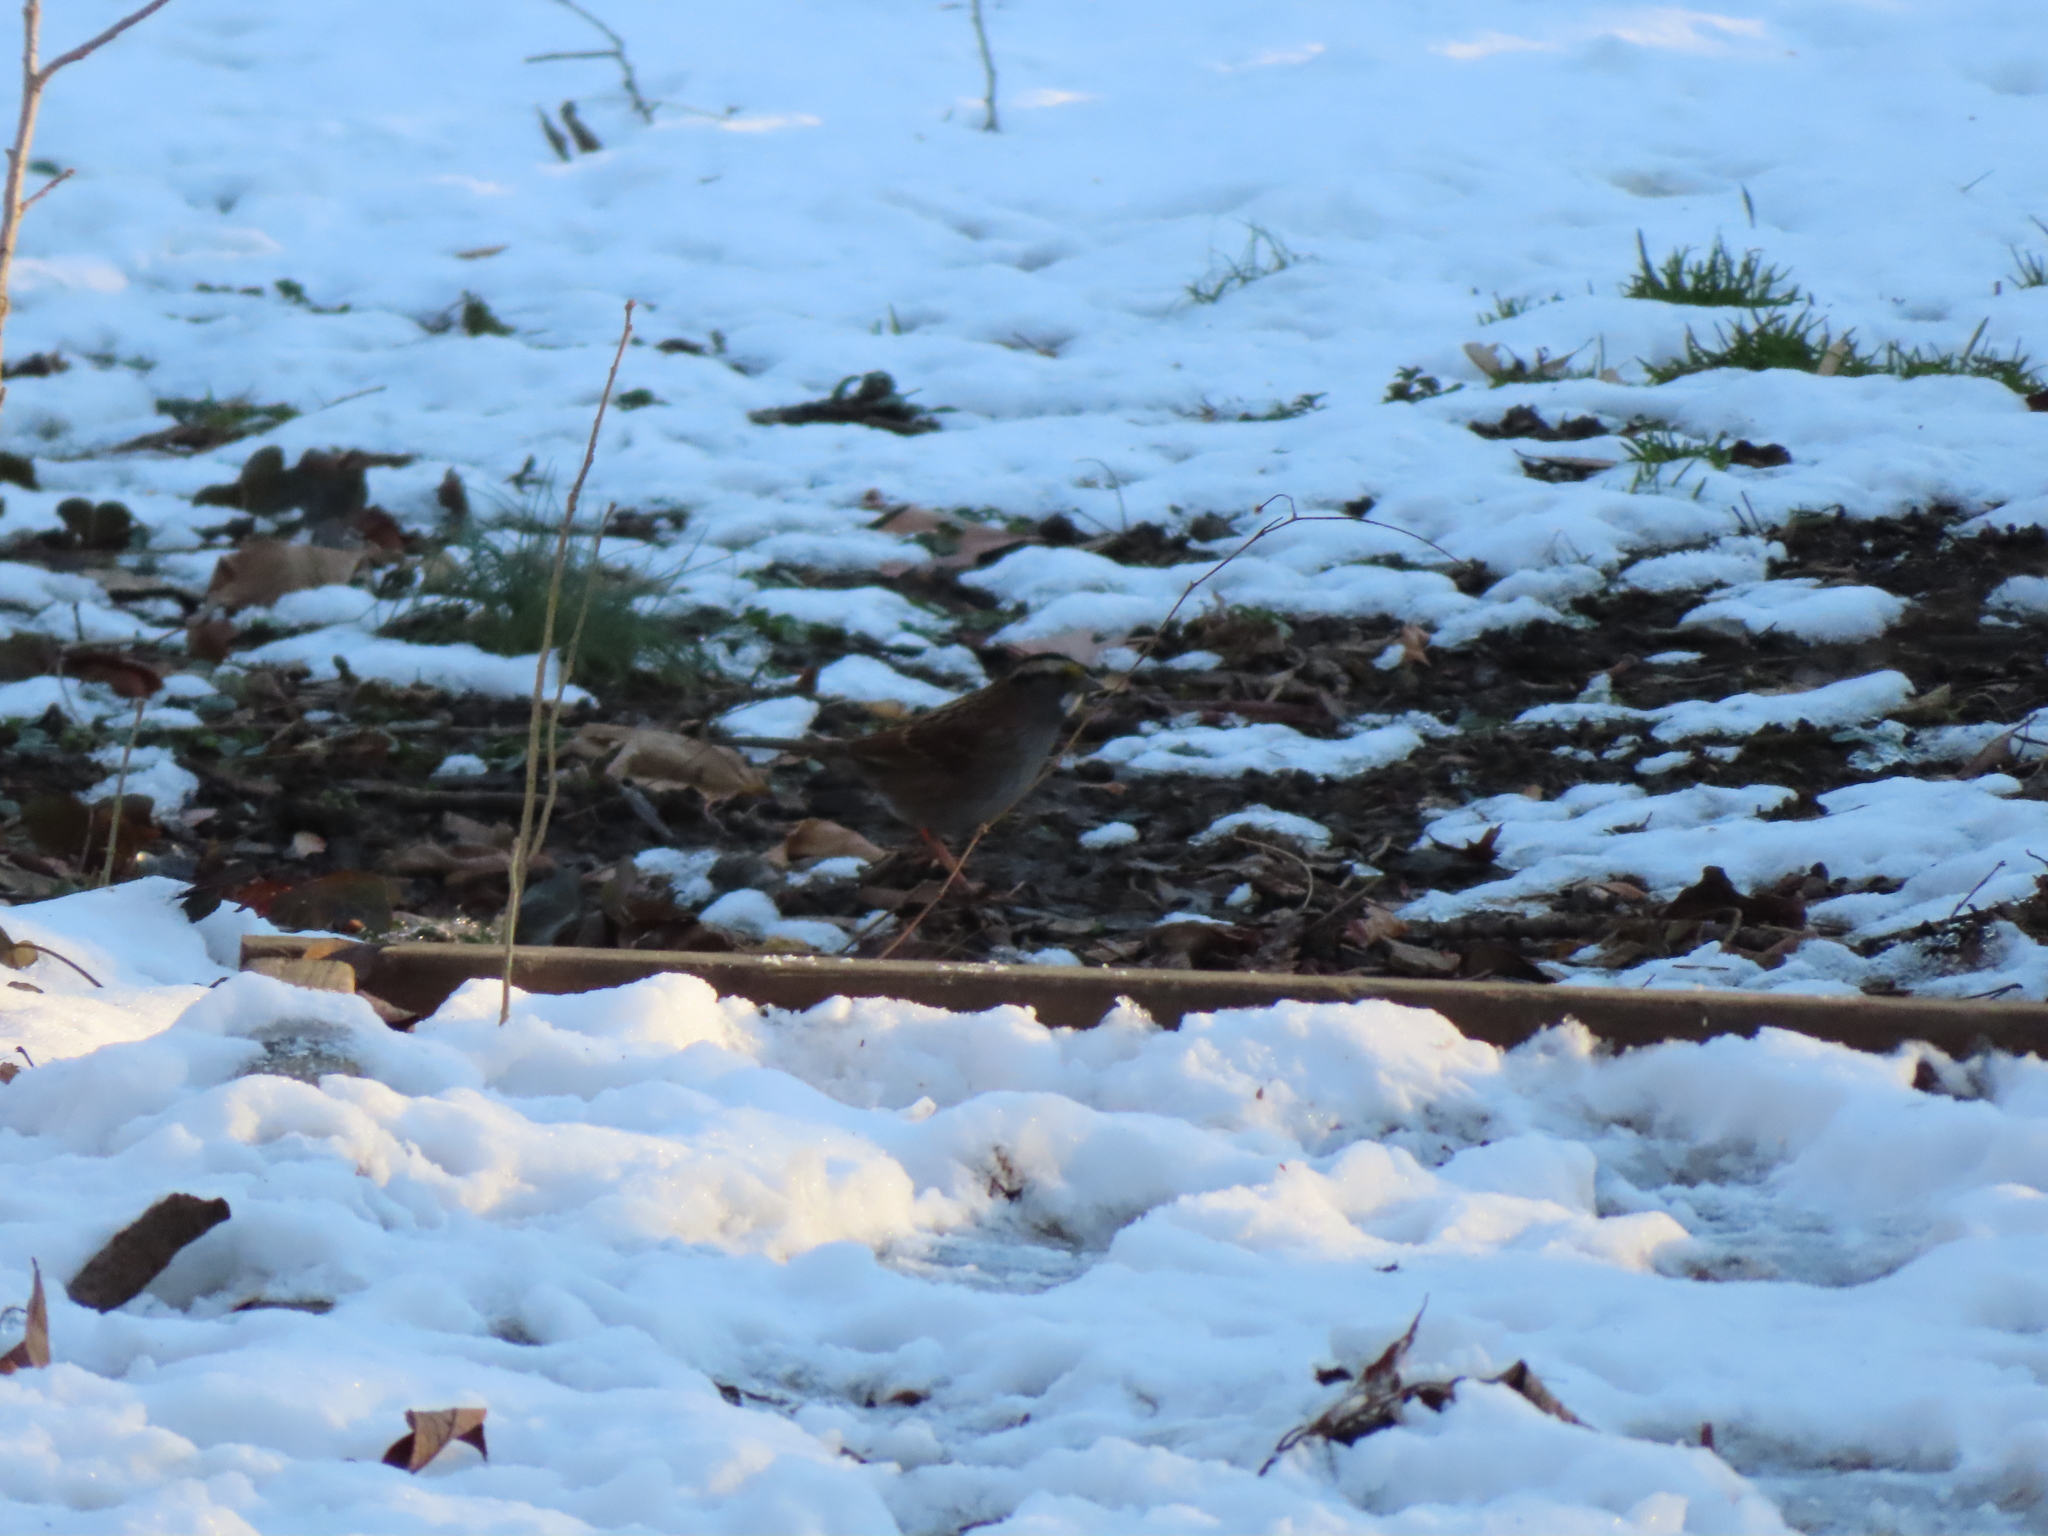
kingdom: Animalia
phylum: Chordata
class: Aves
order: Passeriformes
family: Passerellidae
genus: Zonotrichia
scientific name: Zonotrichia albicollis
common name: White-throated sparrow
